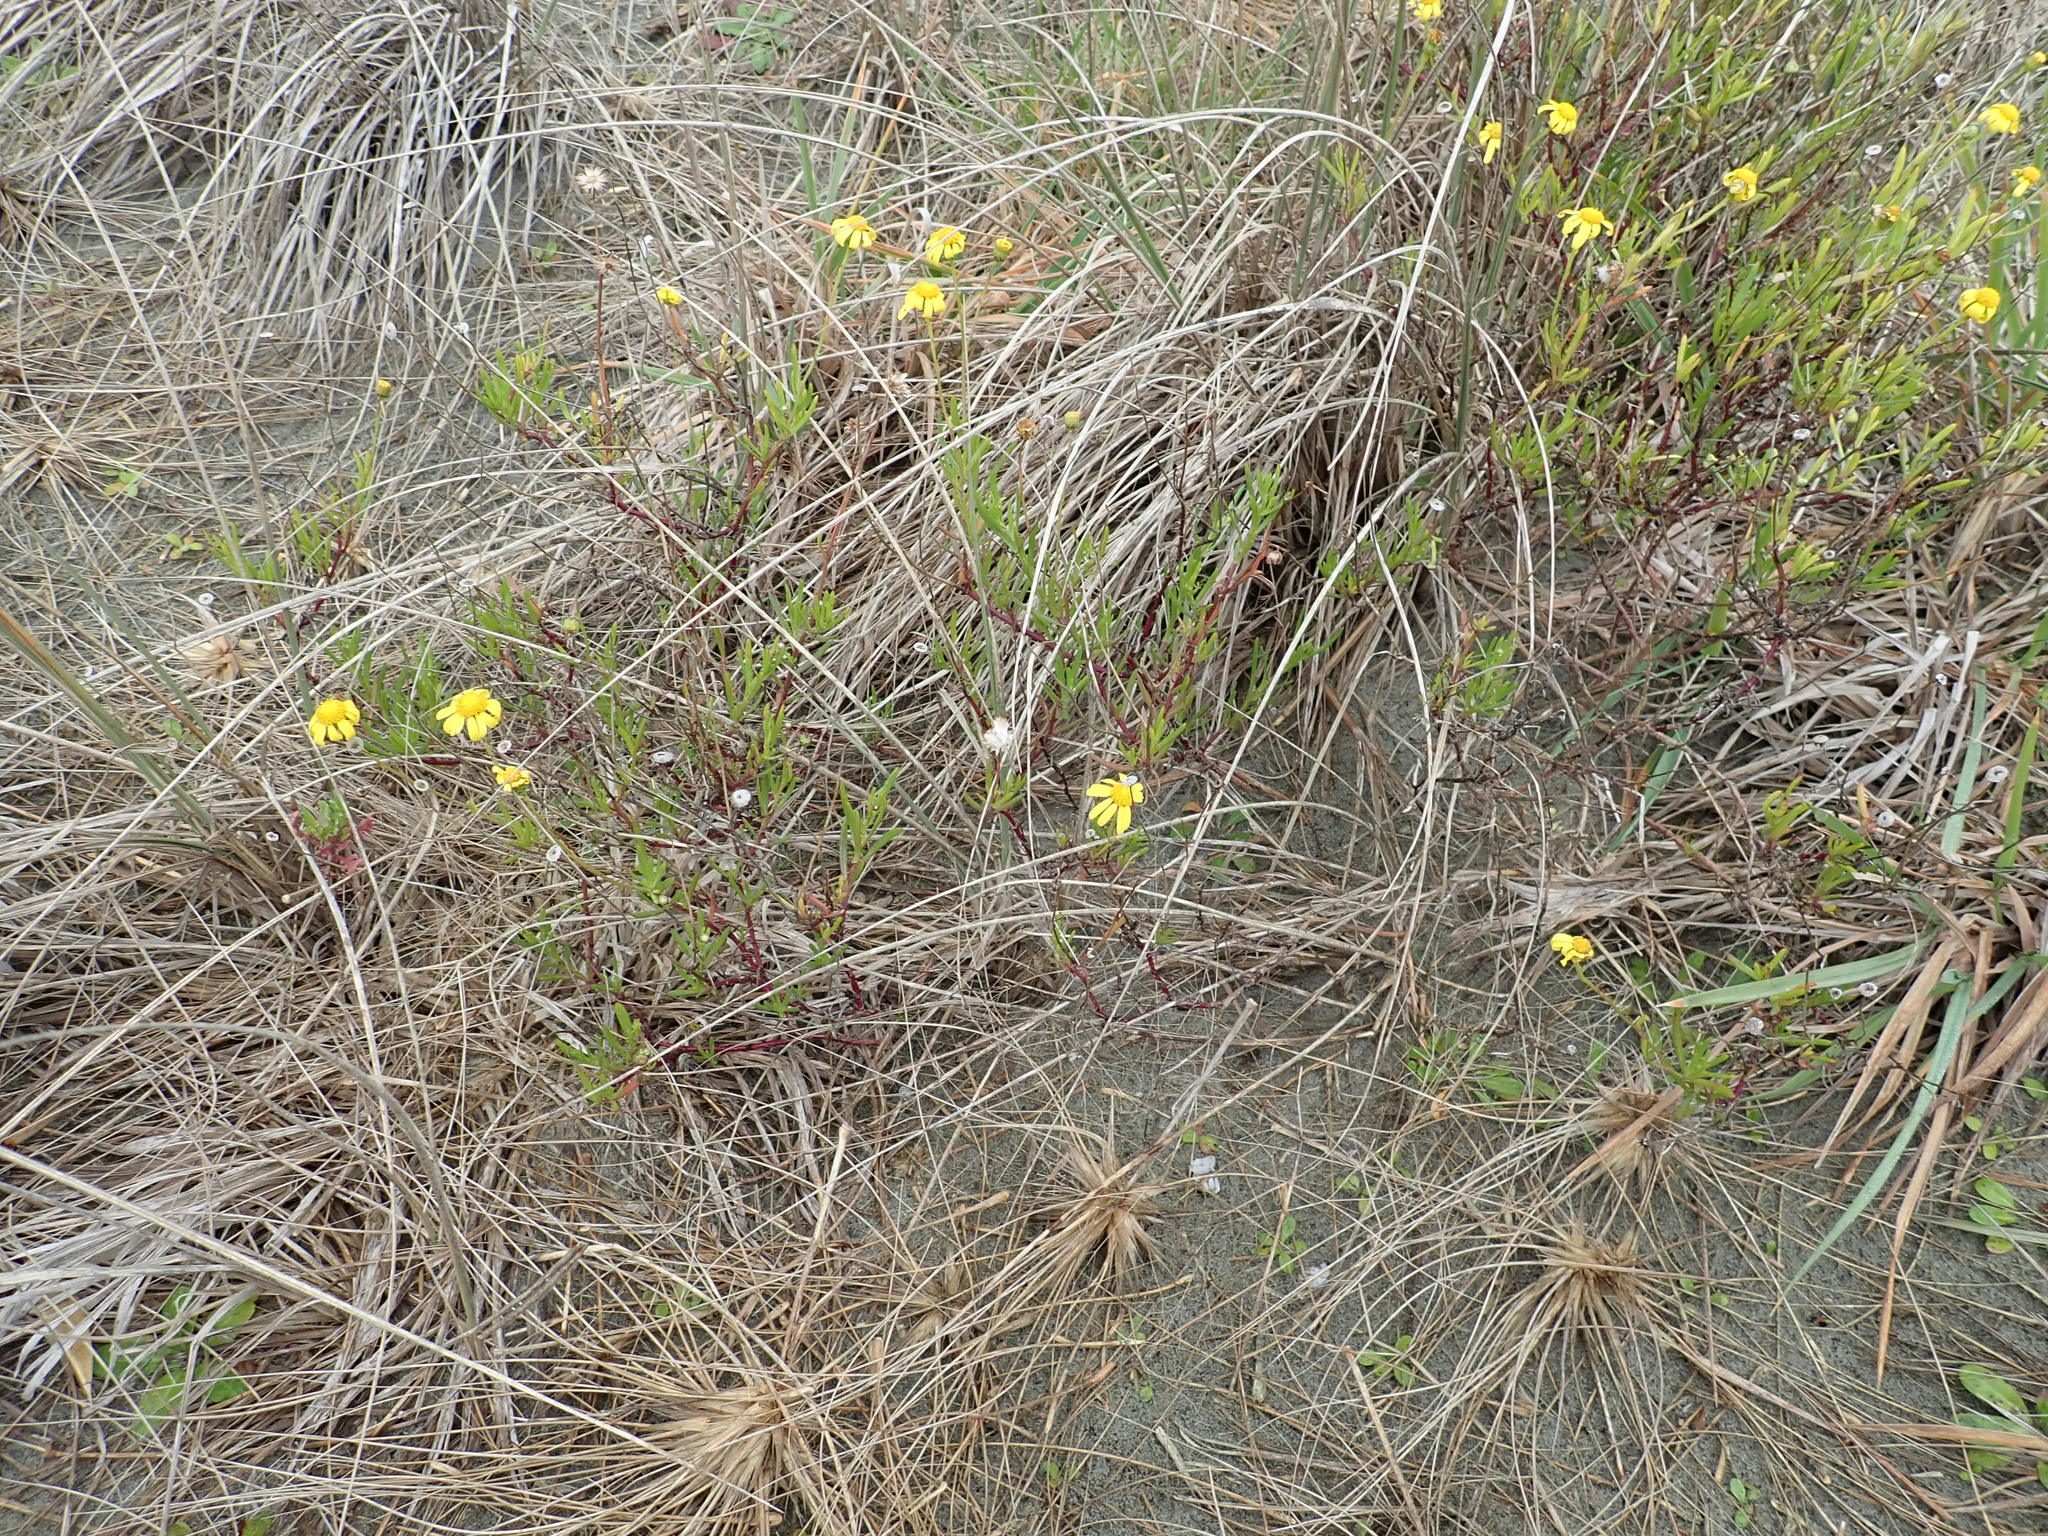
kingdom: Plantae
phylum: Tracheophyta
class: Magnoliopsida
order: Asterales
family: Asteraceae
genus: Senecio
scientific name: Senecio skirrhodon
